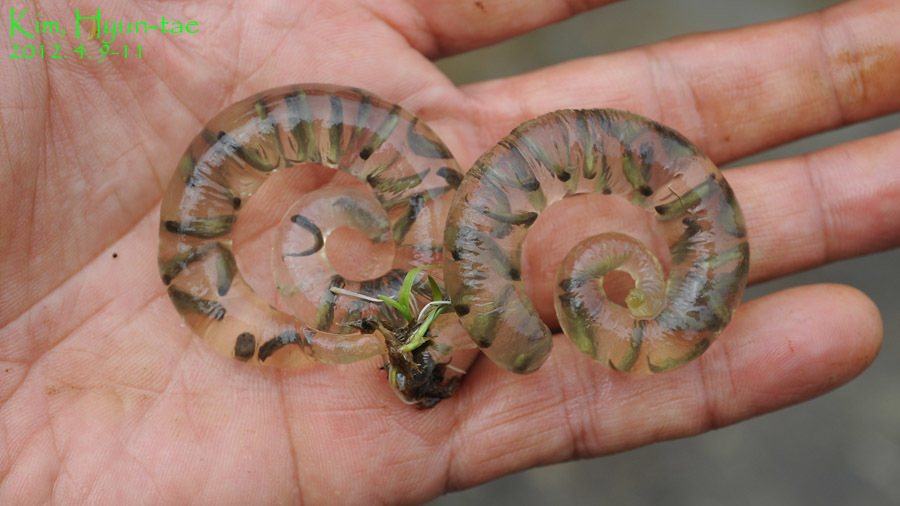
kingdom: Animalia
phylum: Chordata
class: Amphibia
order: Caudata
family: Hynobiidae
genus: Hynobius
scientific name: Hynobius leechii
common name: Gensan salamander
